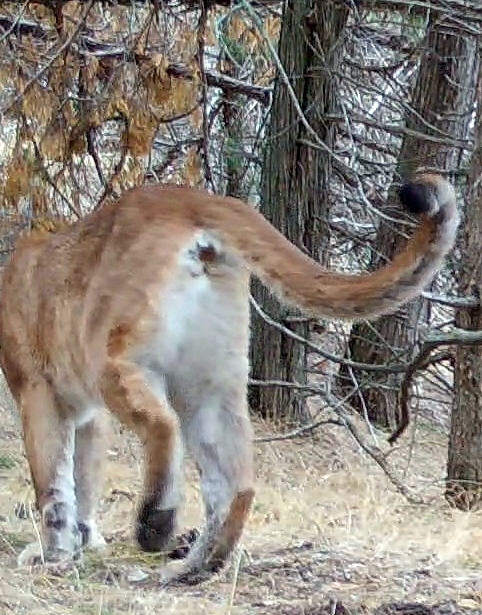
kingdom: Animalia
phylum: Chordata
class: Mammalia
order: Carnivora
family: Felidae
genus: Puma
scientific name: Puma concolor
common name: Puma
